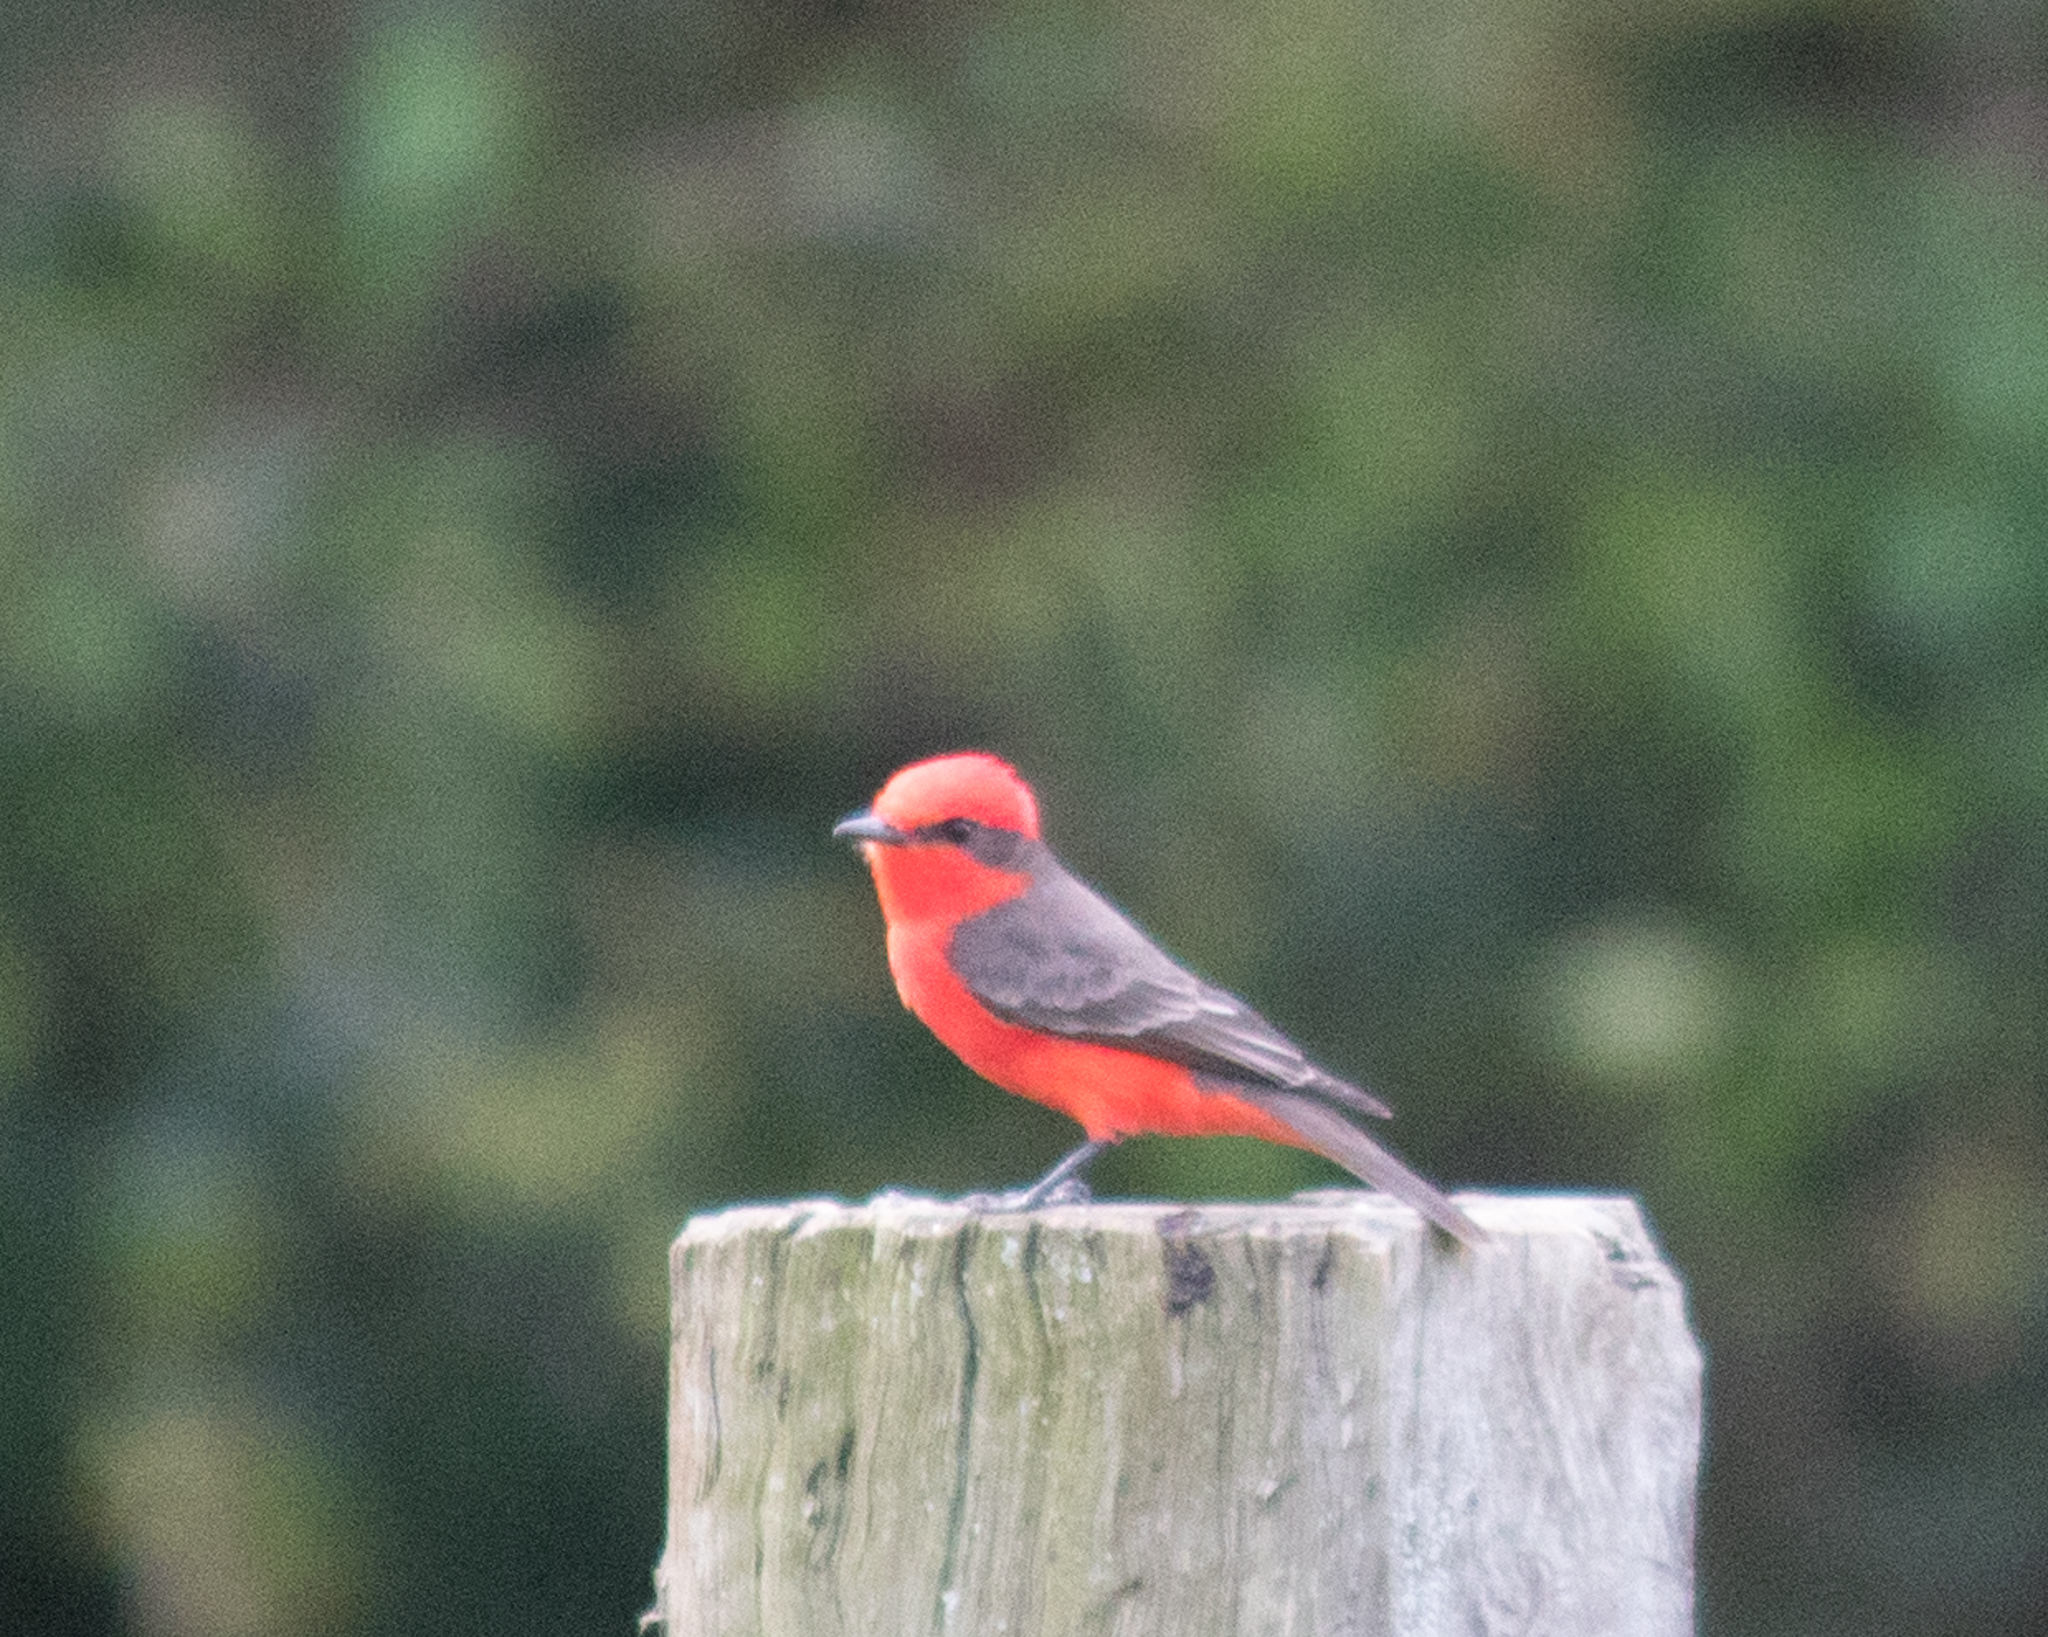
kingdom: Animalia
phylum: Chordata
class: Aves
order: Passeriformes
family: Tyrannidae
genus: Pyrocephalus
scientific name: Pyrocephalus rubinus
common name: Vermilion flycatcher
